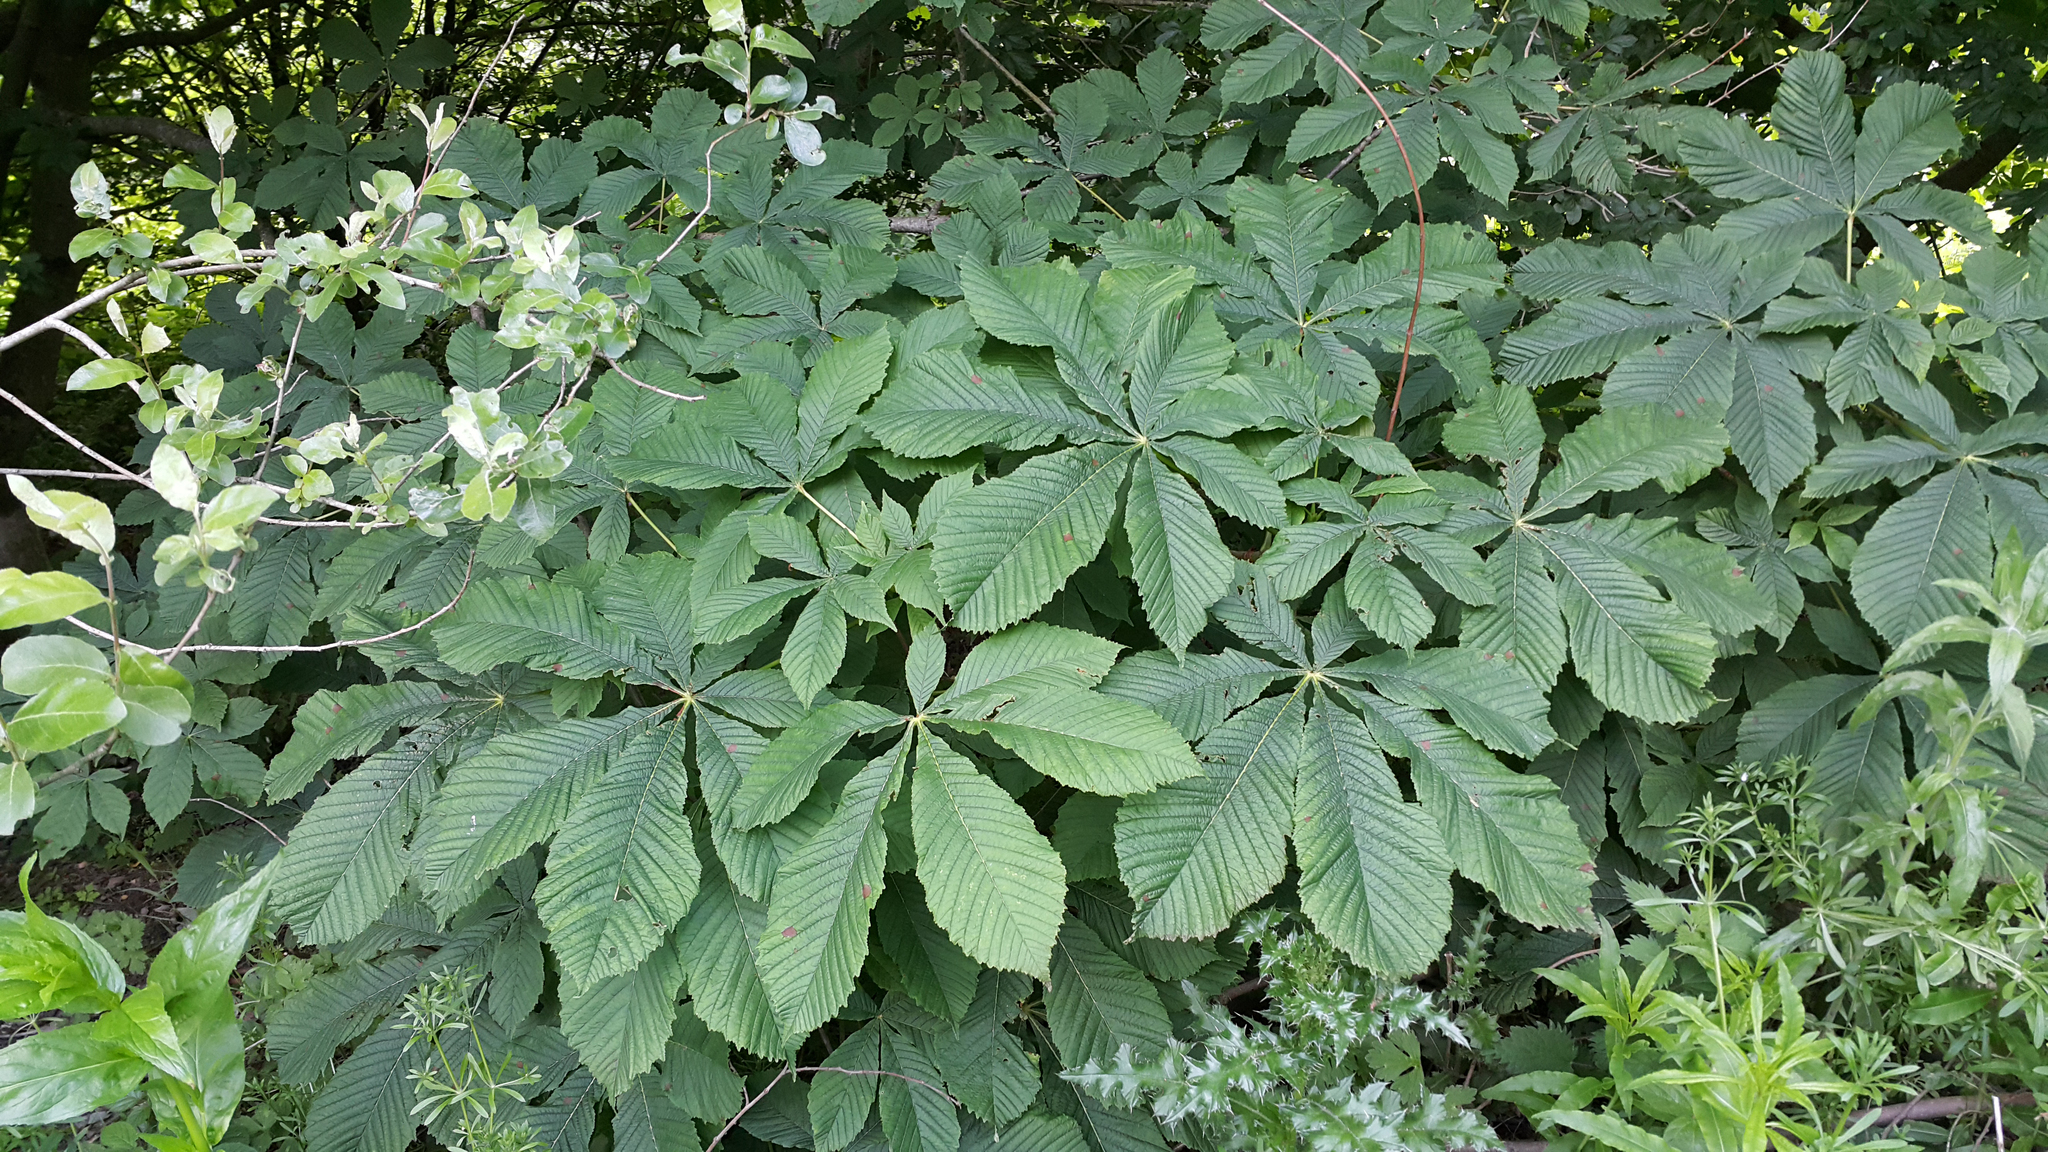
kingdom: Plantae
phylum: Tracheophyta
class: Magnoliopsida
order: Sapindales
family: Sapindaceae
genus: Aesculus
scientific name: Aesculus hippocastanum
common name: Horse-chestnut
